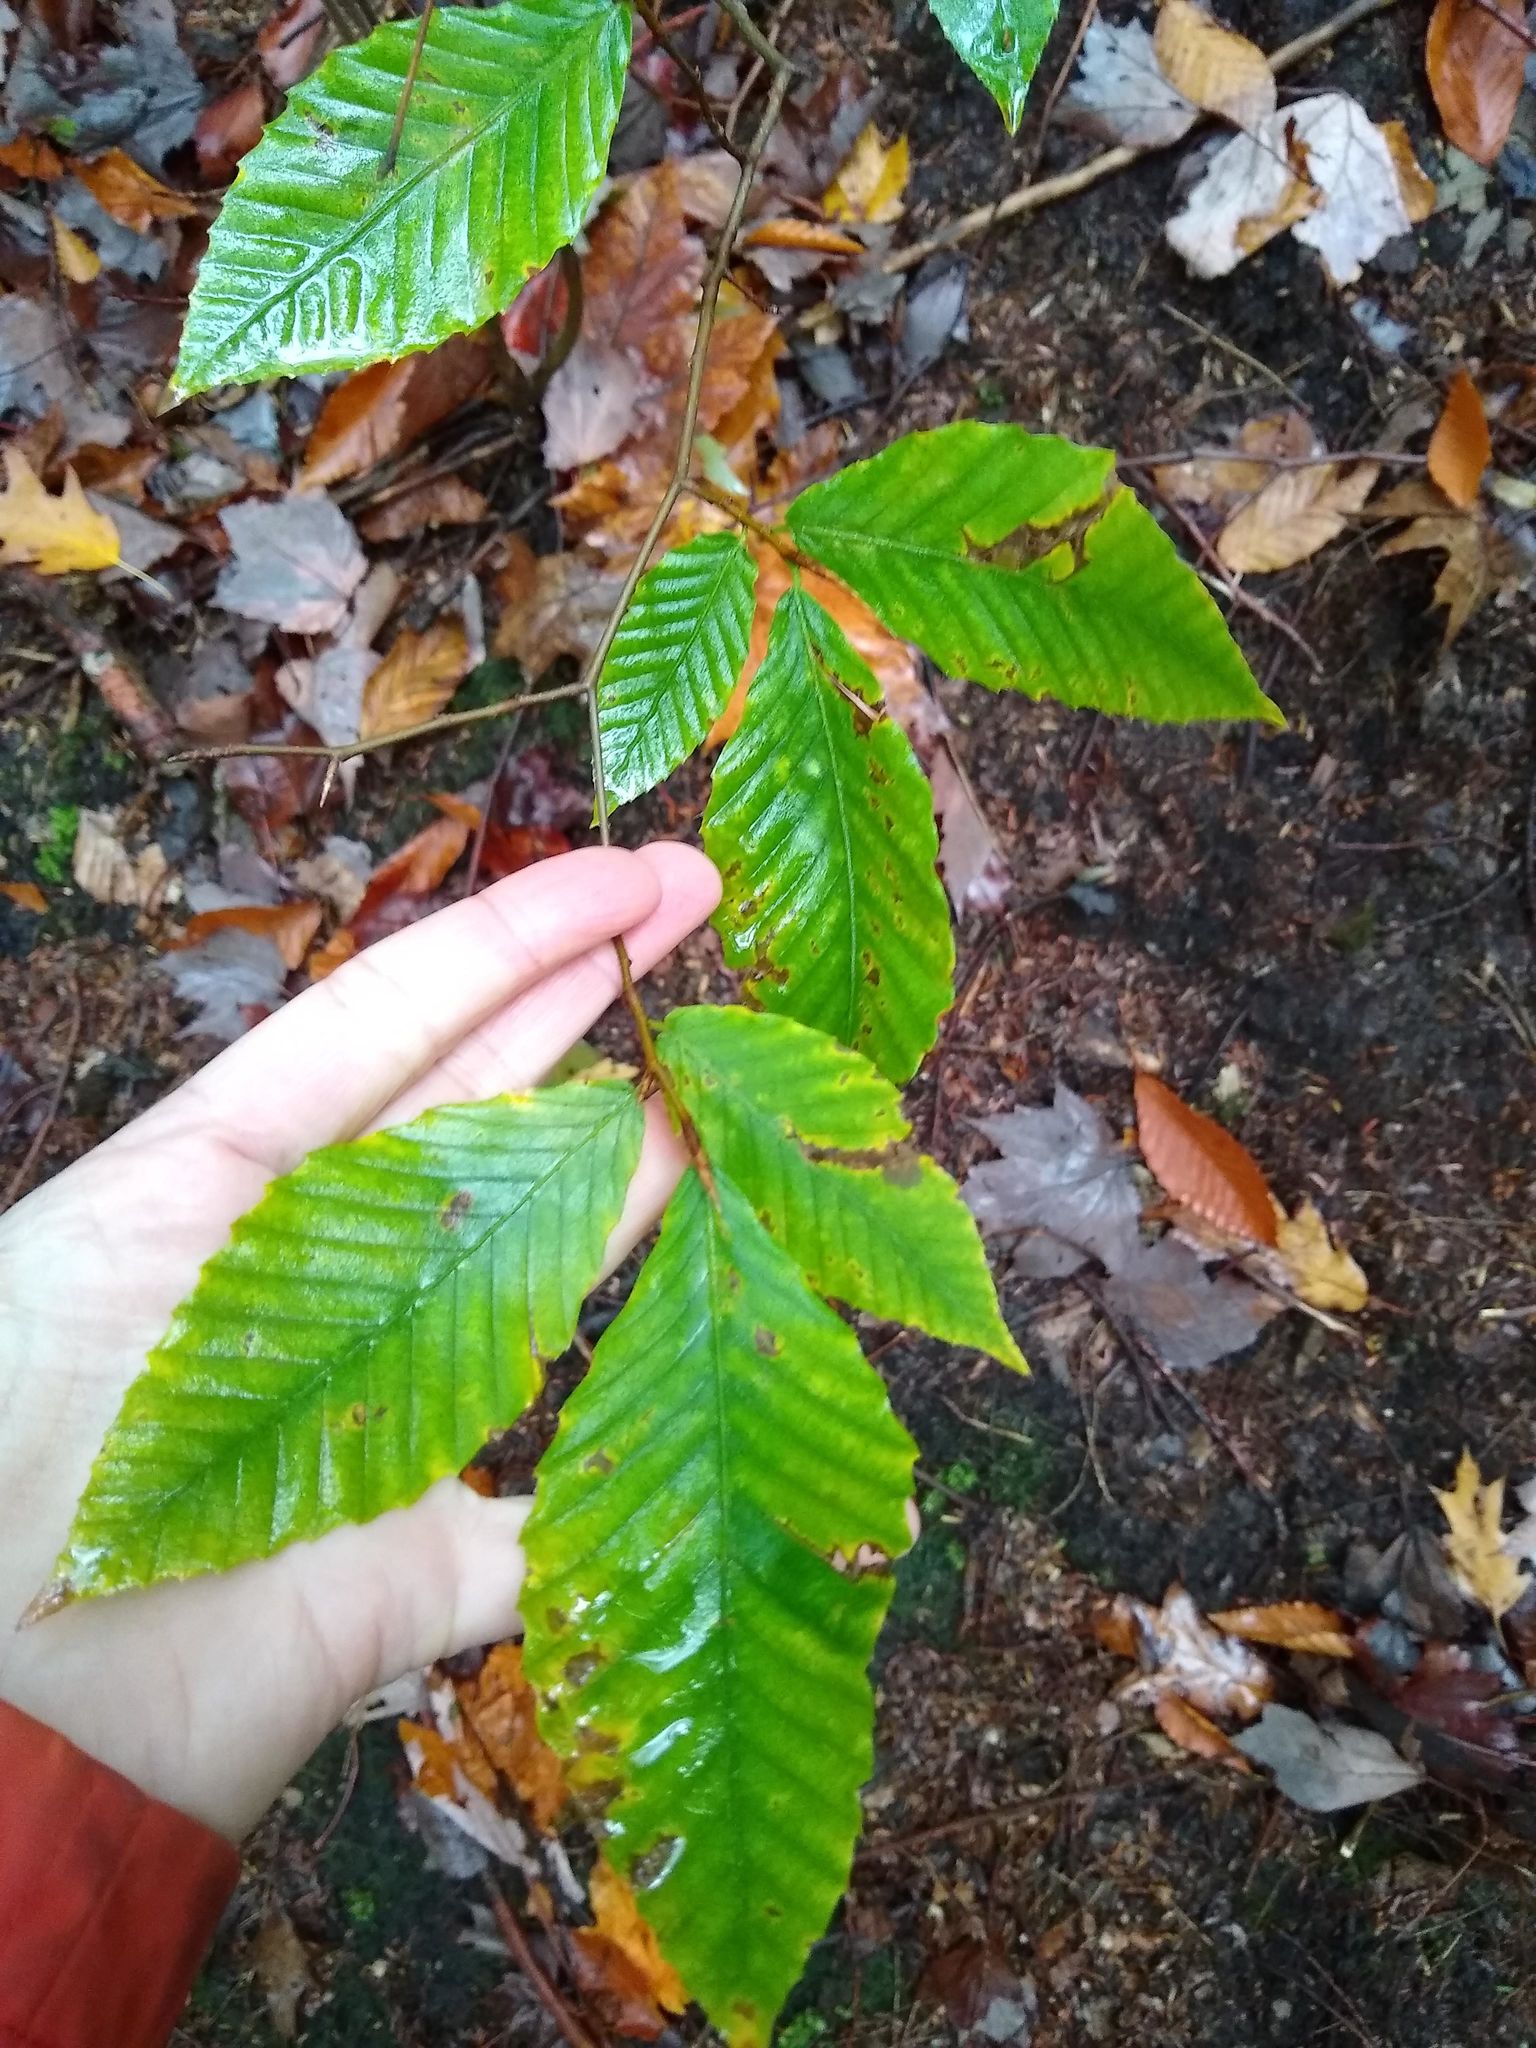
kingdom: Plantae
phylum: Tracheophyta
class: Magnoliopsida
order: Fagales
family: Fagaceae
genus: Fagus
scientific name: Fagus grandifolia
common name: American beech
